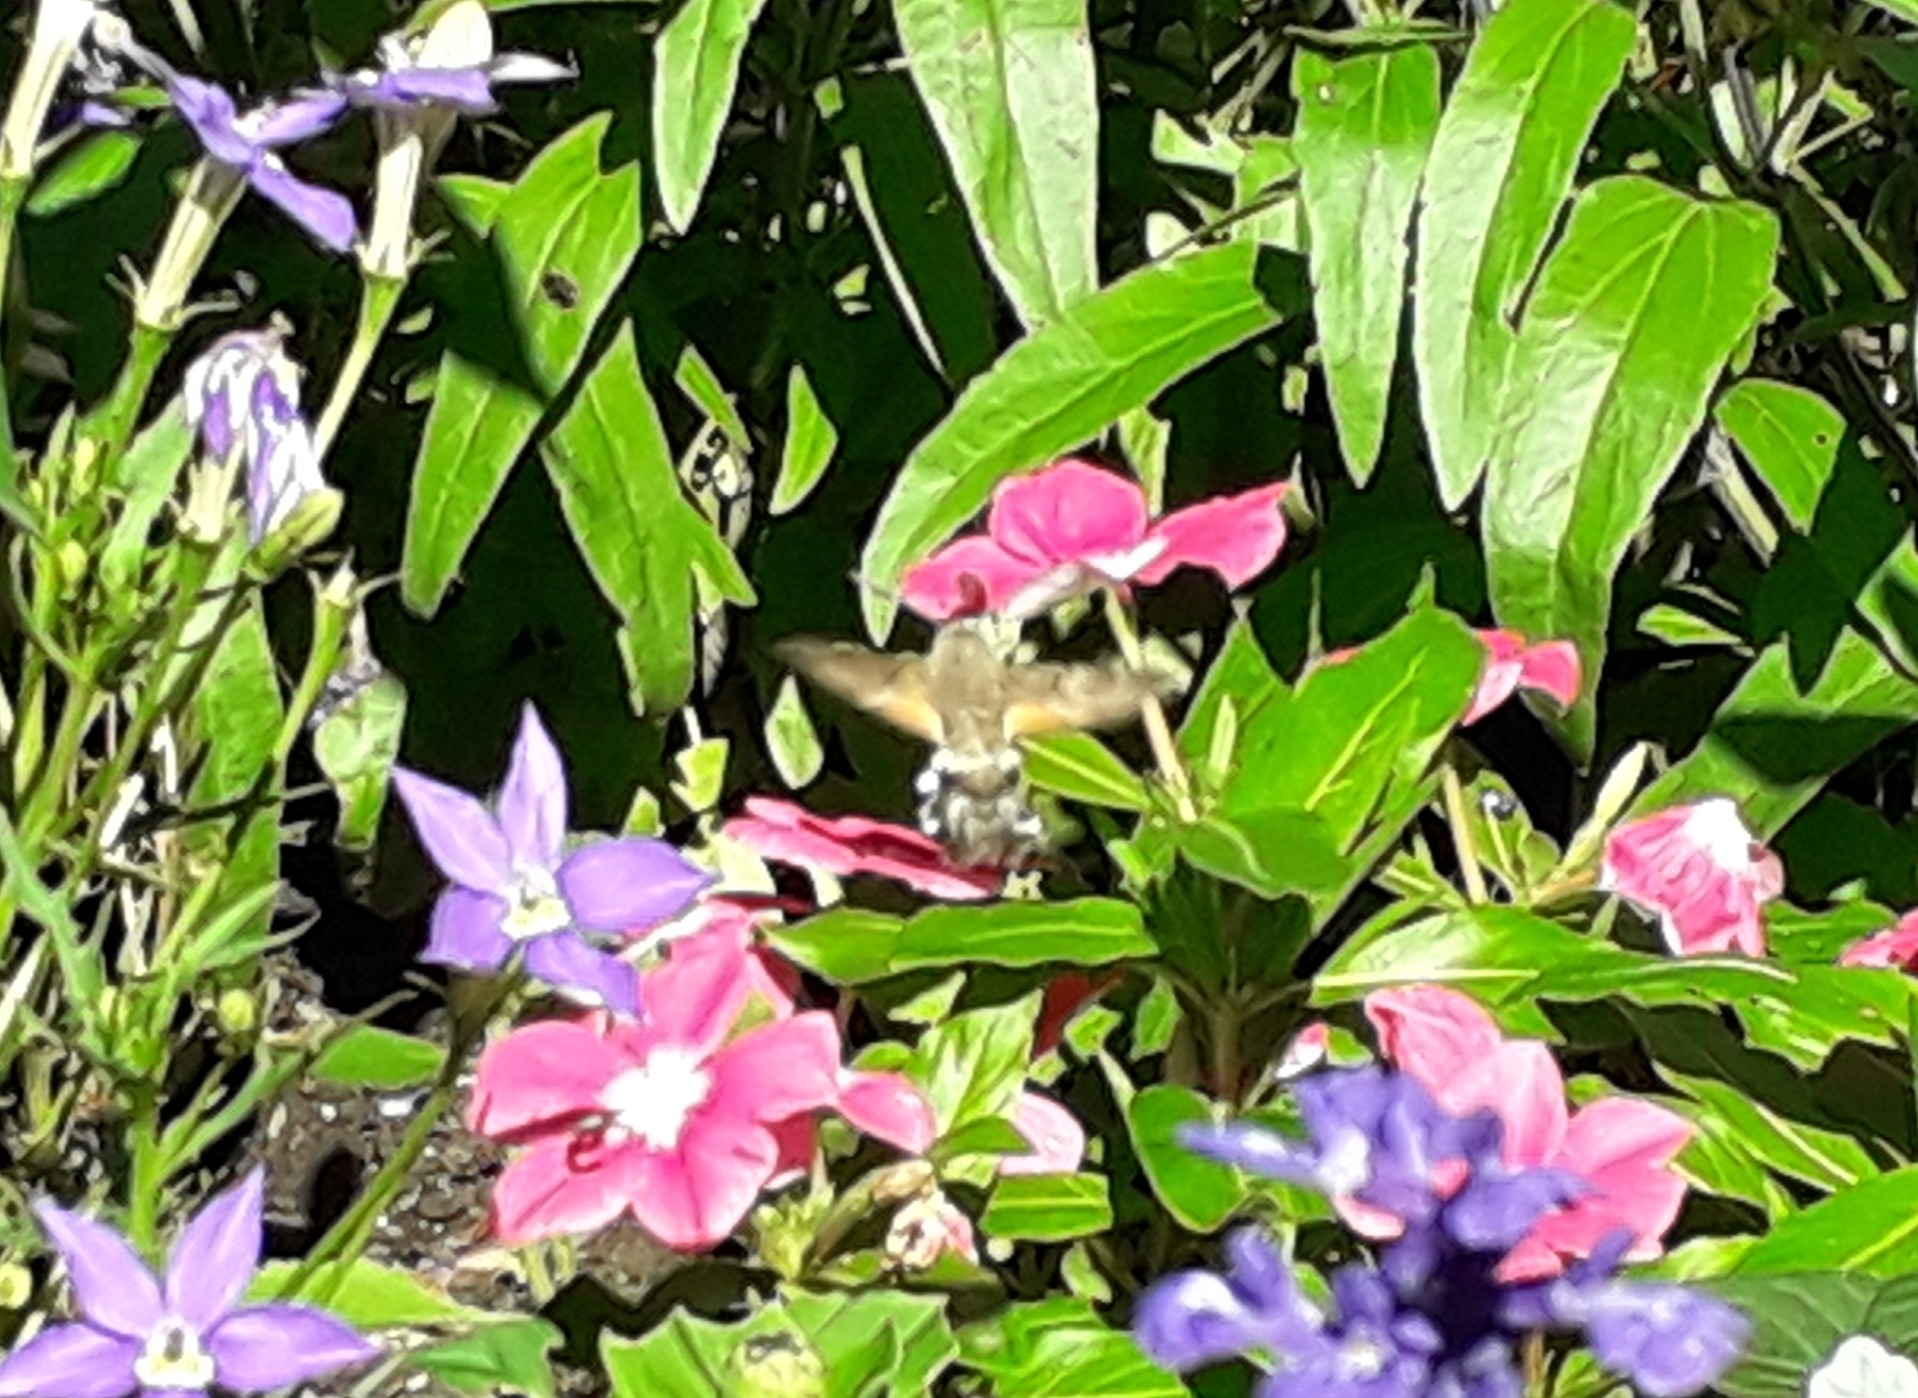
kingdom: Animalia
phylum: Arthropoda
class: Insecta
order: Lepidoptera
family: Sphingidae
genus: Macroglossum
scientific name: Macroglossum stellatarum
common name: Humming-bird hawk-moth
